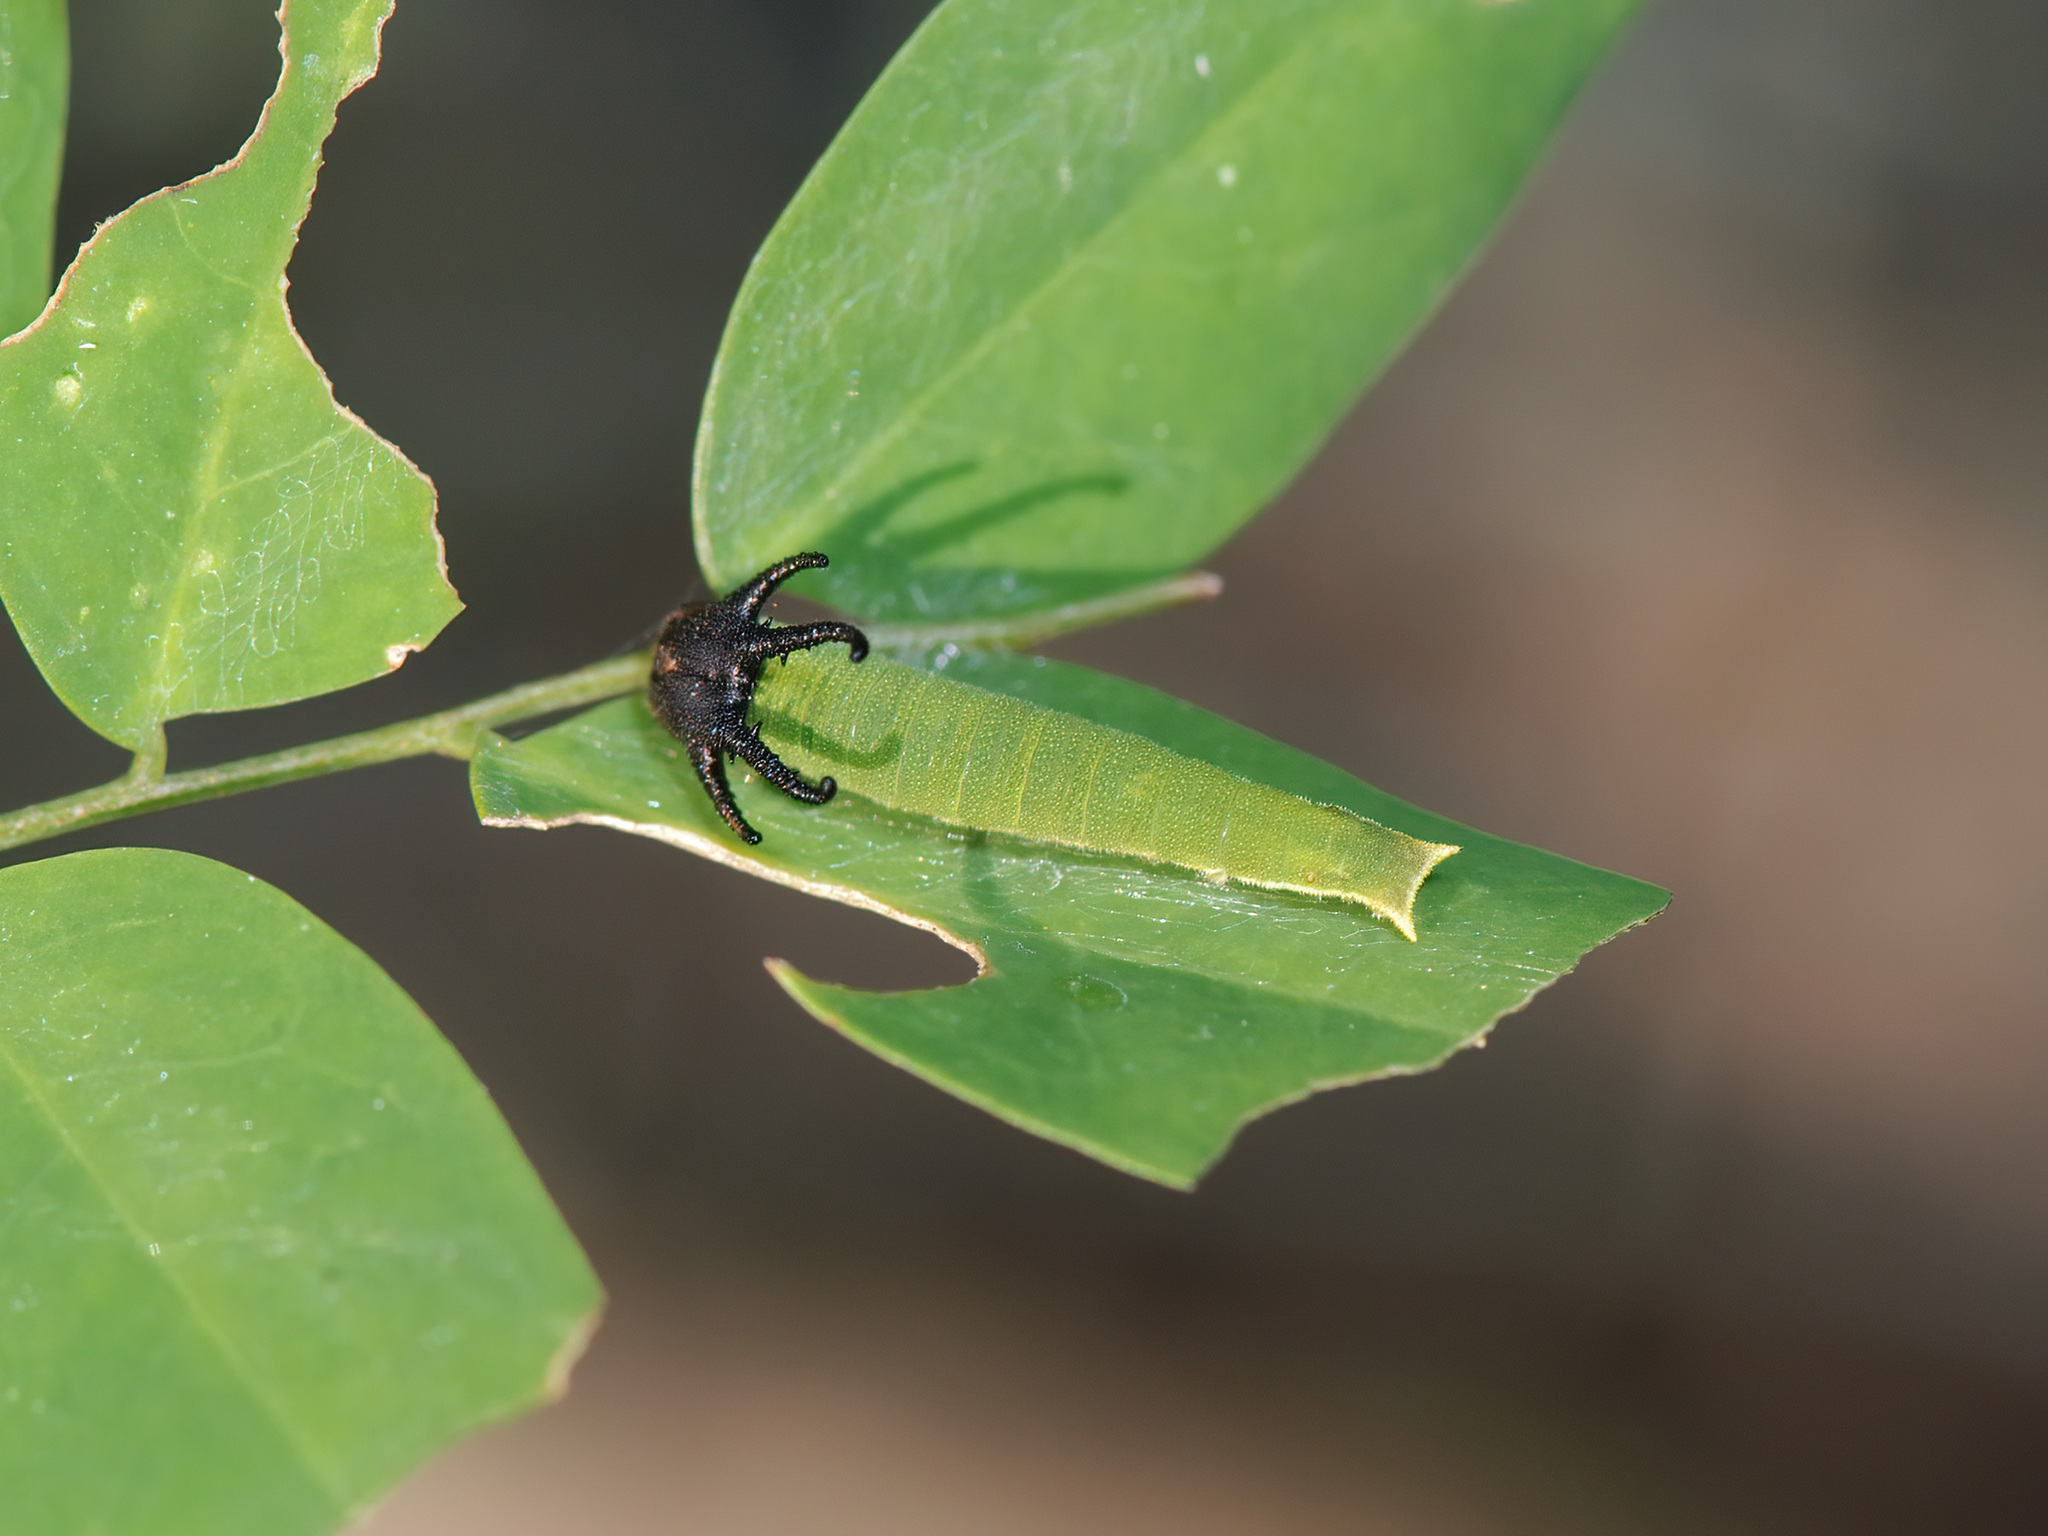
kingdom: Animalia
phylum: Arthropoda
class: Insecta
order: Lepidoptera
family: Nymphalidae
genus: Polyura
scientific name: Polyura hebe
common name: Plain nawab
